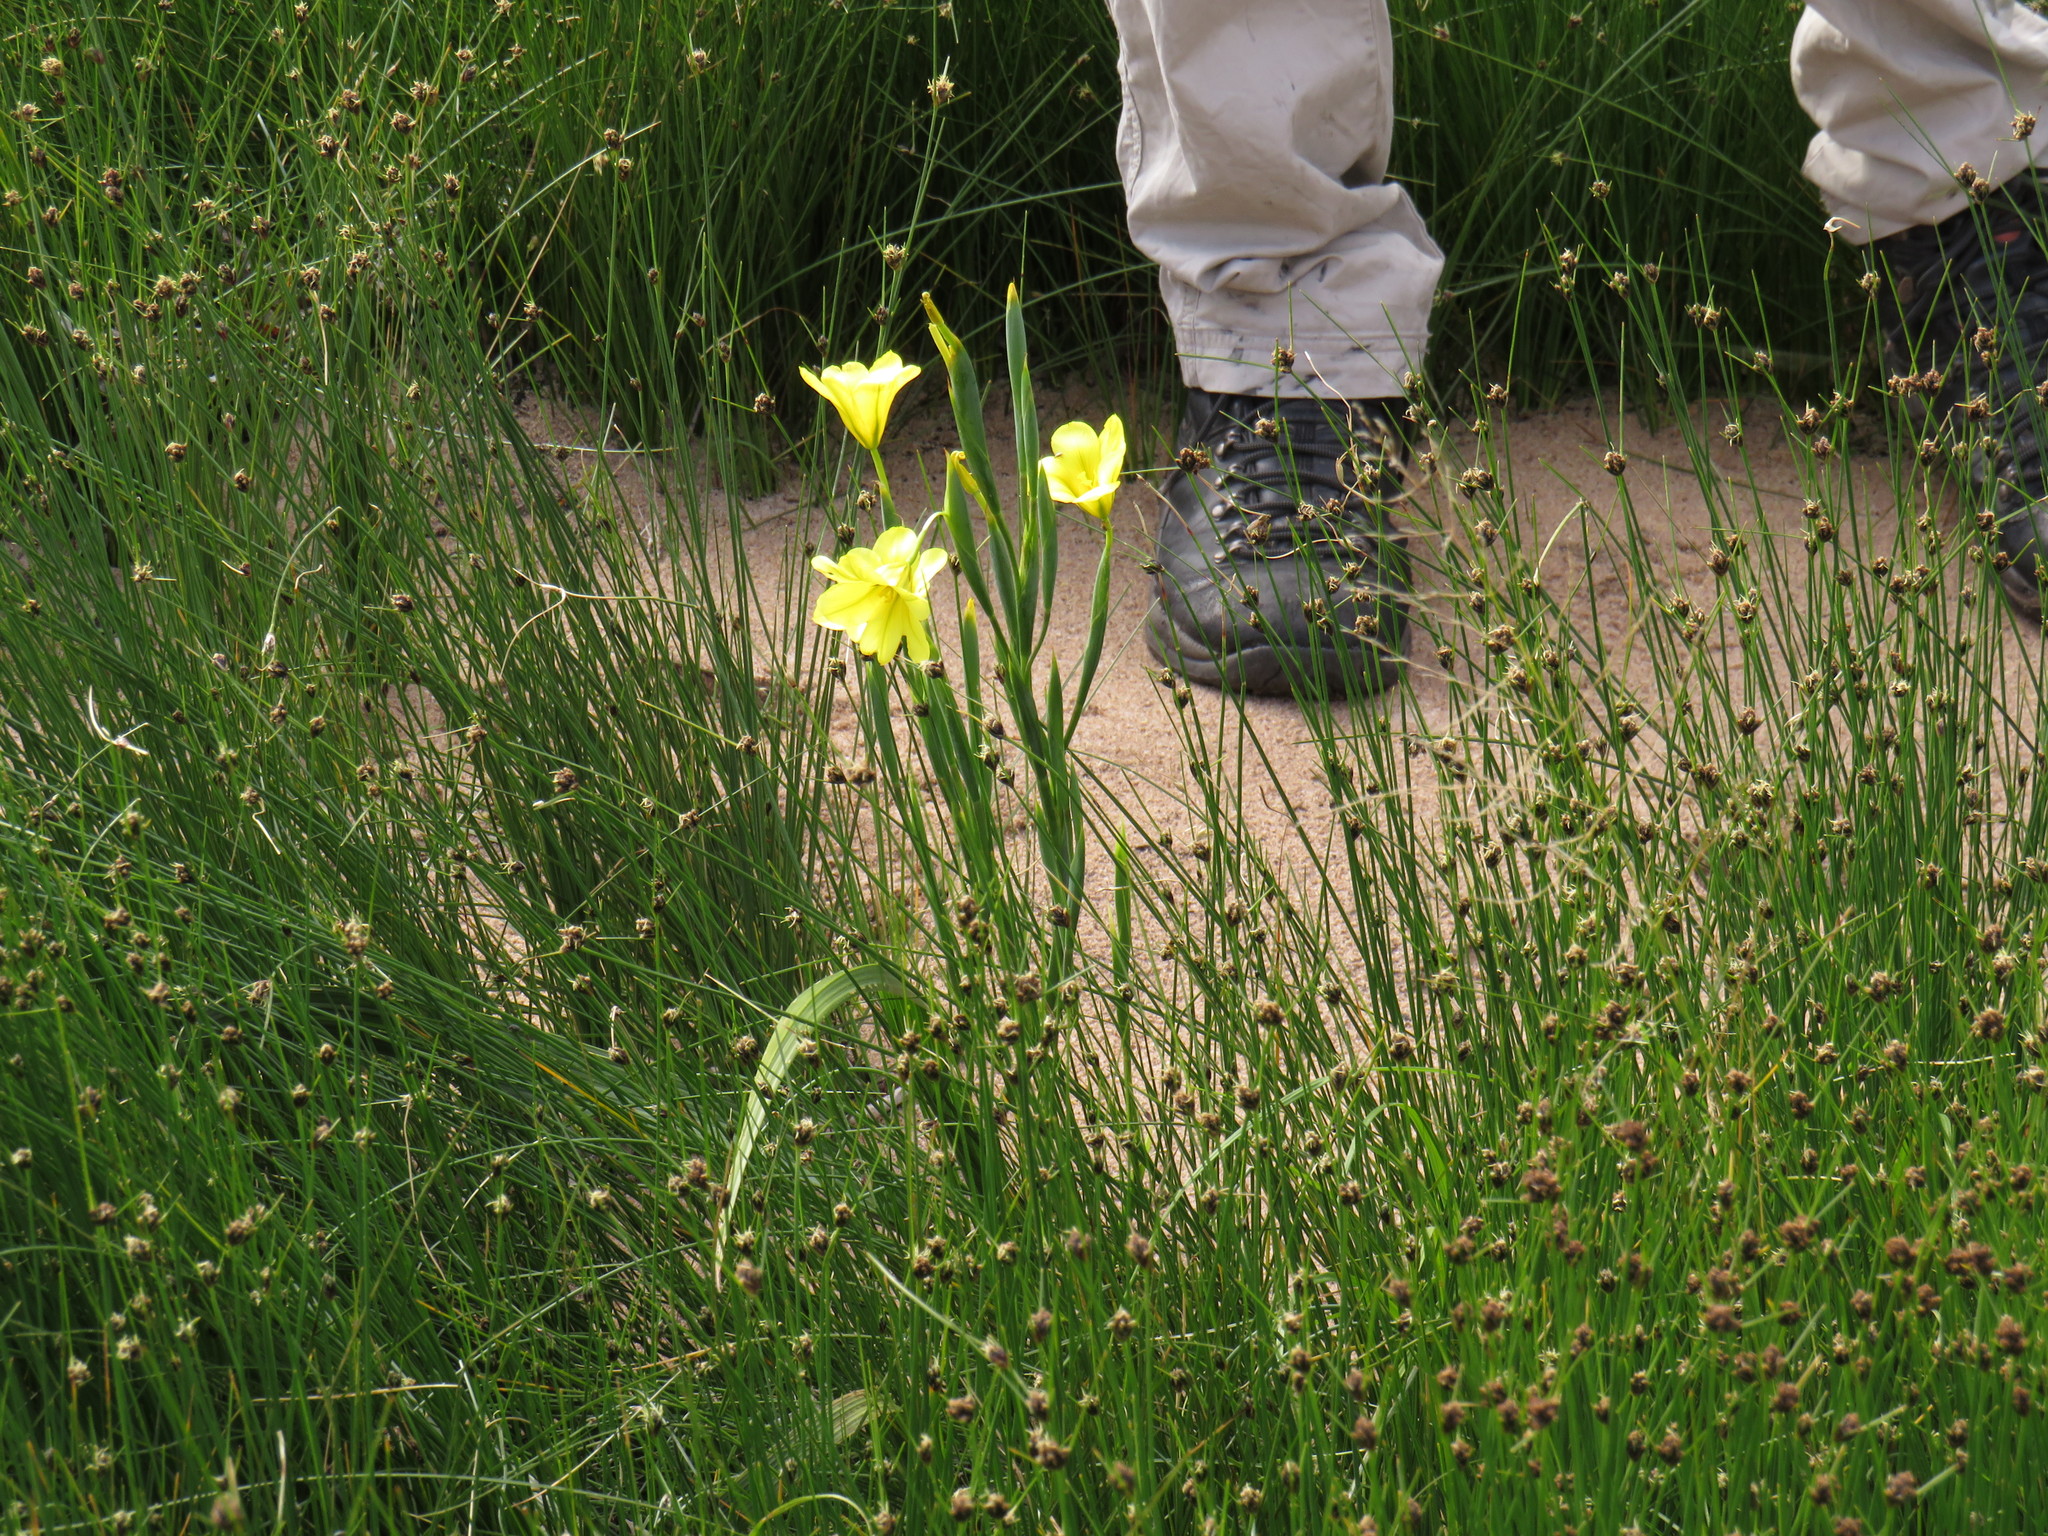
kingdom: Plantae
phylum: Tracheophyta
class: Liliopsida
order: Asparagales
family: Iridaceae
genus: Moraea
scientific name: Moraea ochroleuca
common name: Red tulp
